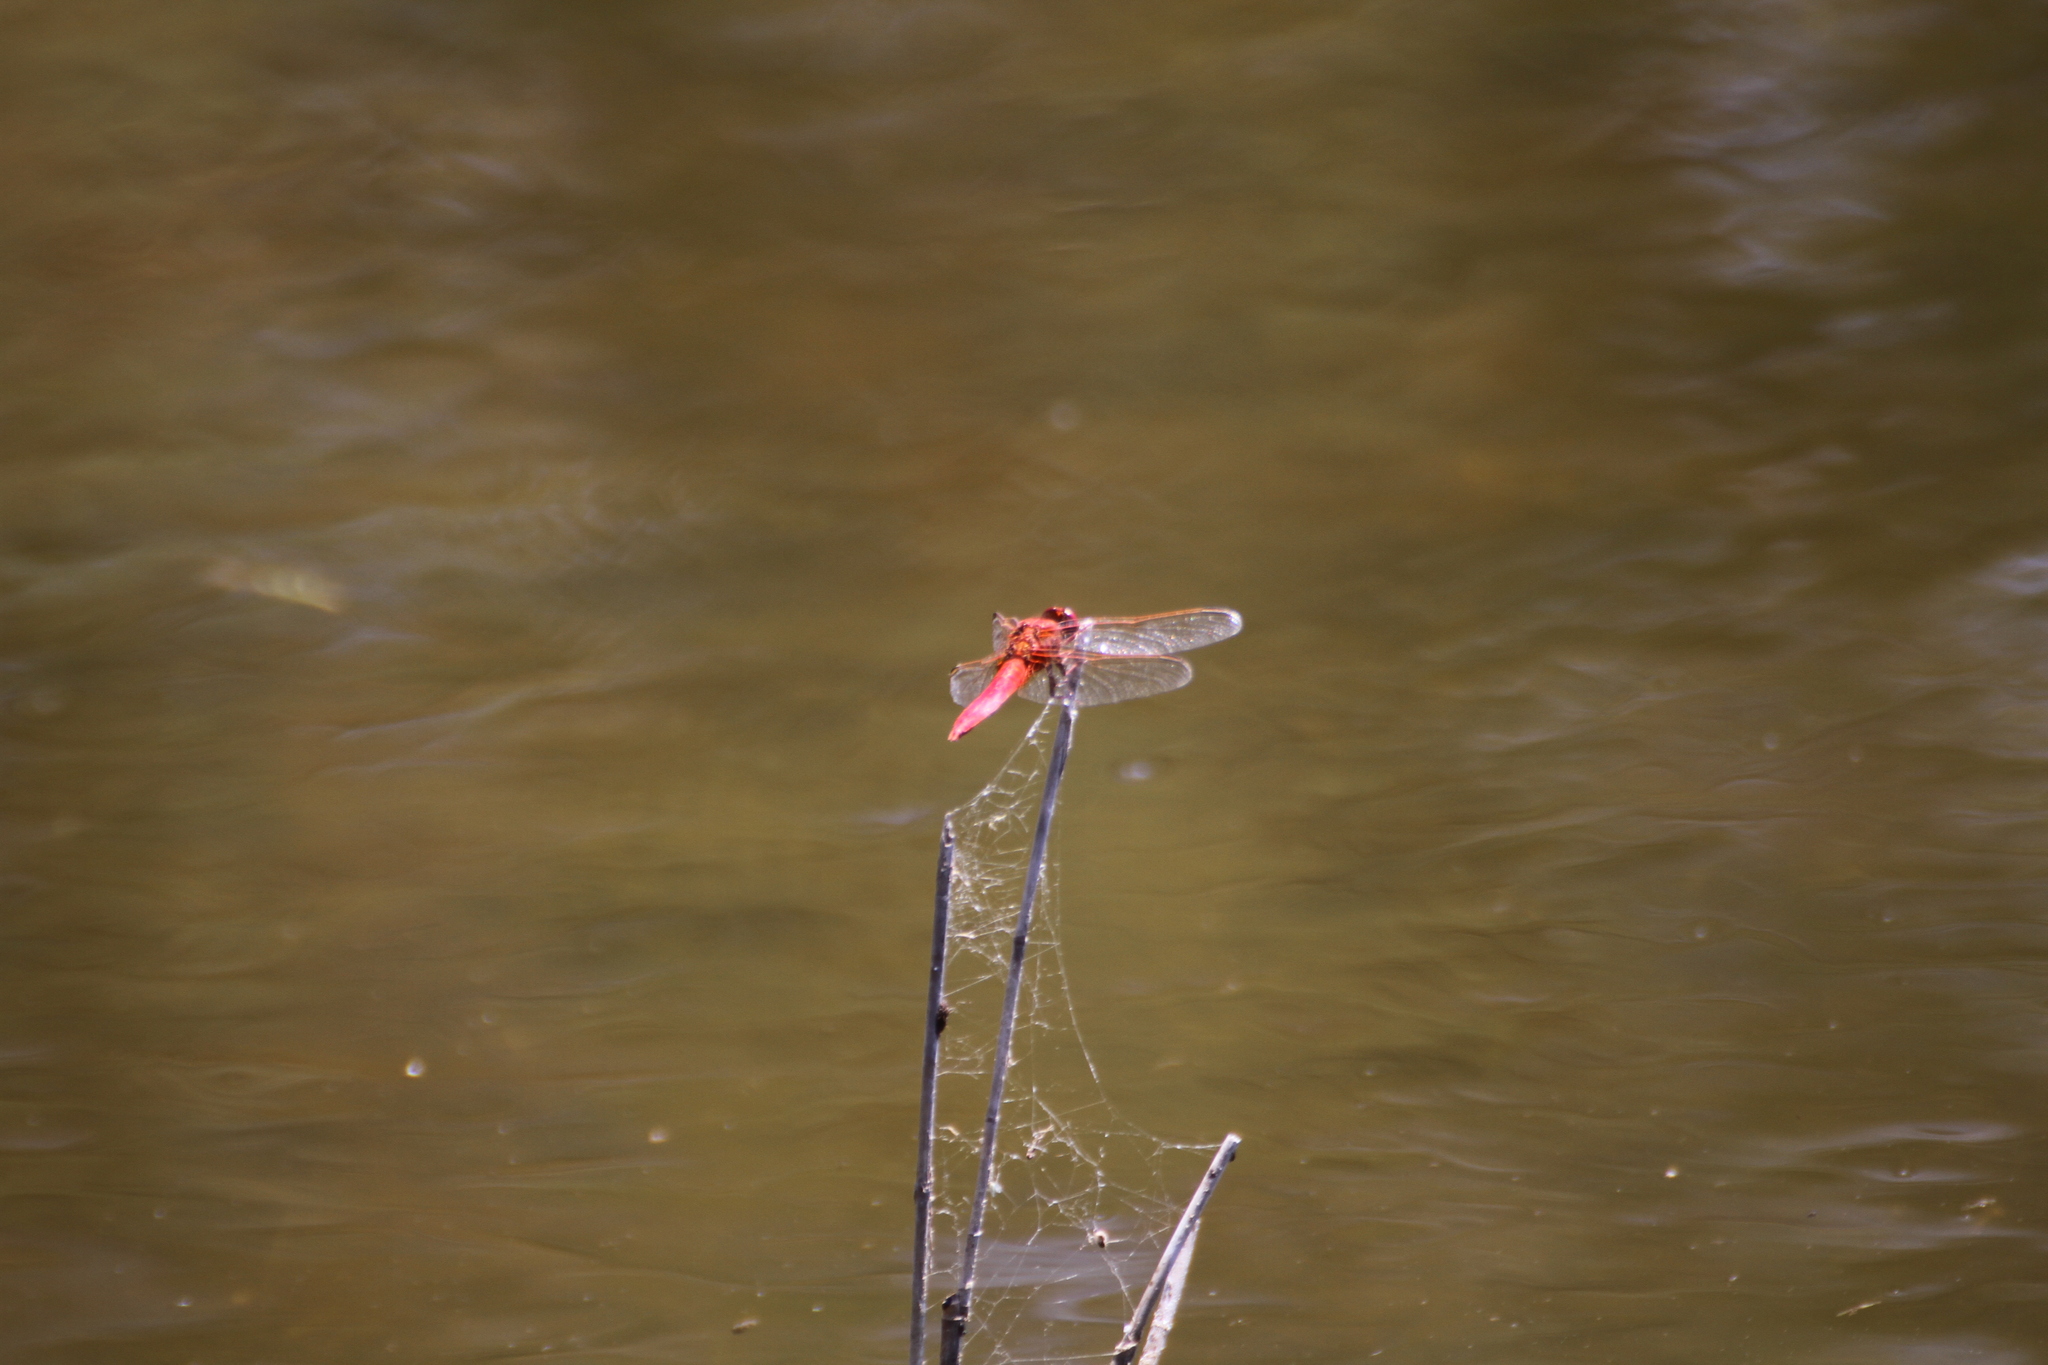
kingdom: Animalia
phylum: Arthropoda
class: Insecta
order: Odonata
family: Libellulidae
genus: Crocothemis
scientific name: Crocothemis erythraea
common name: Scarlet dragonfly
